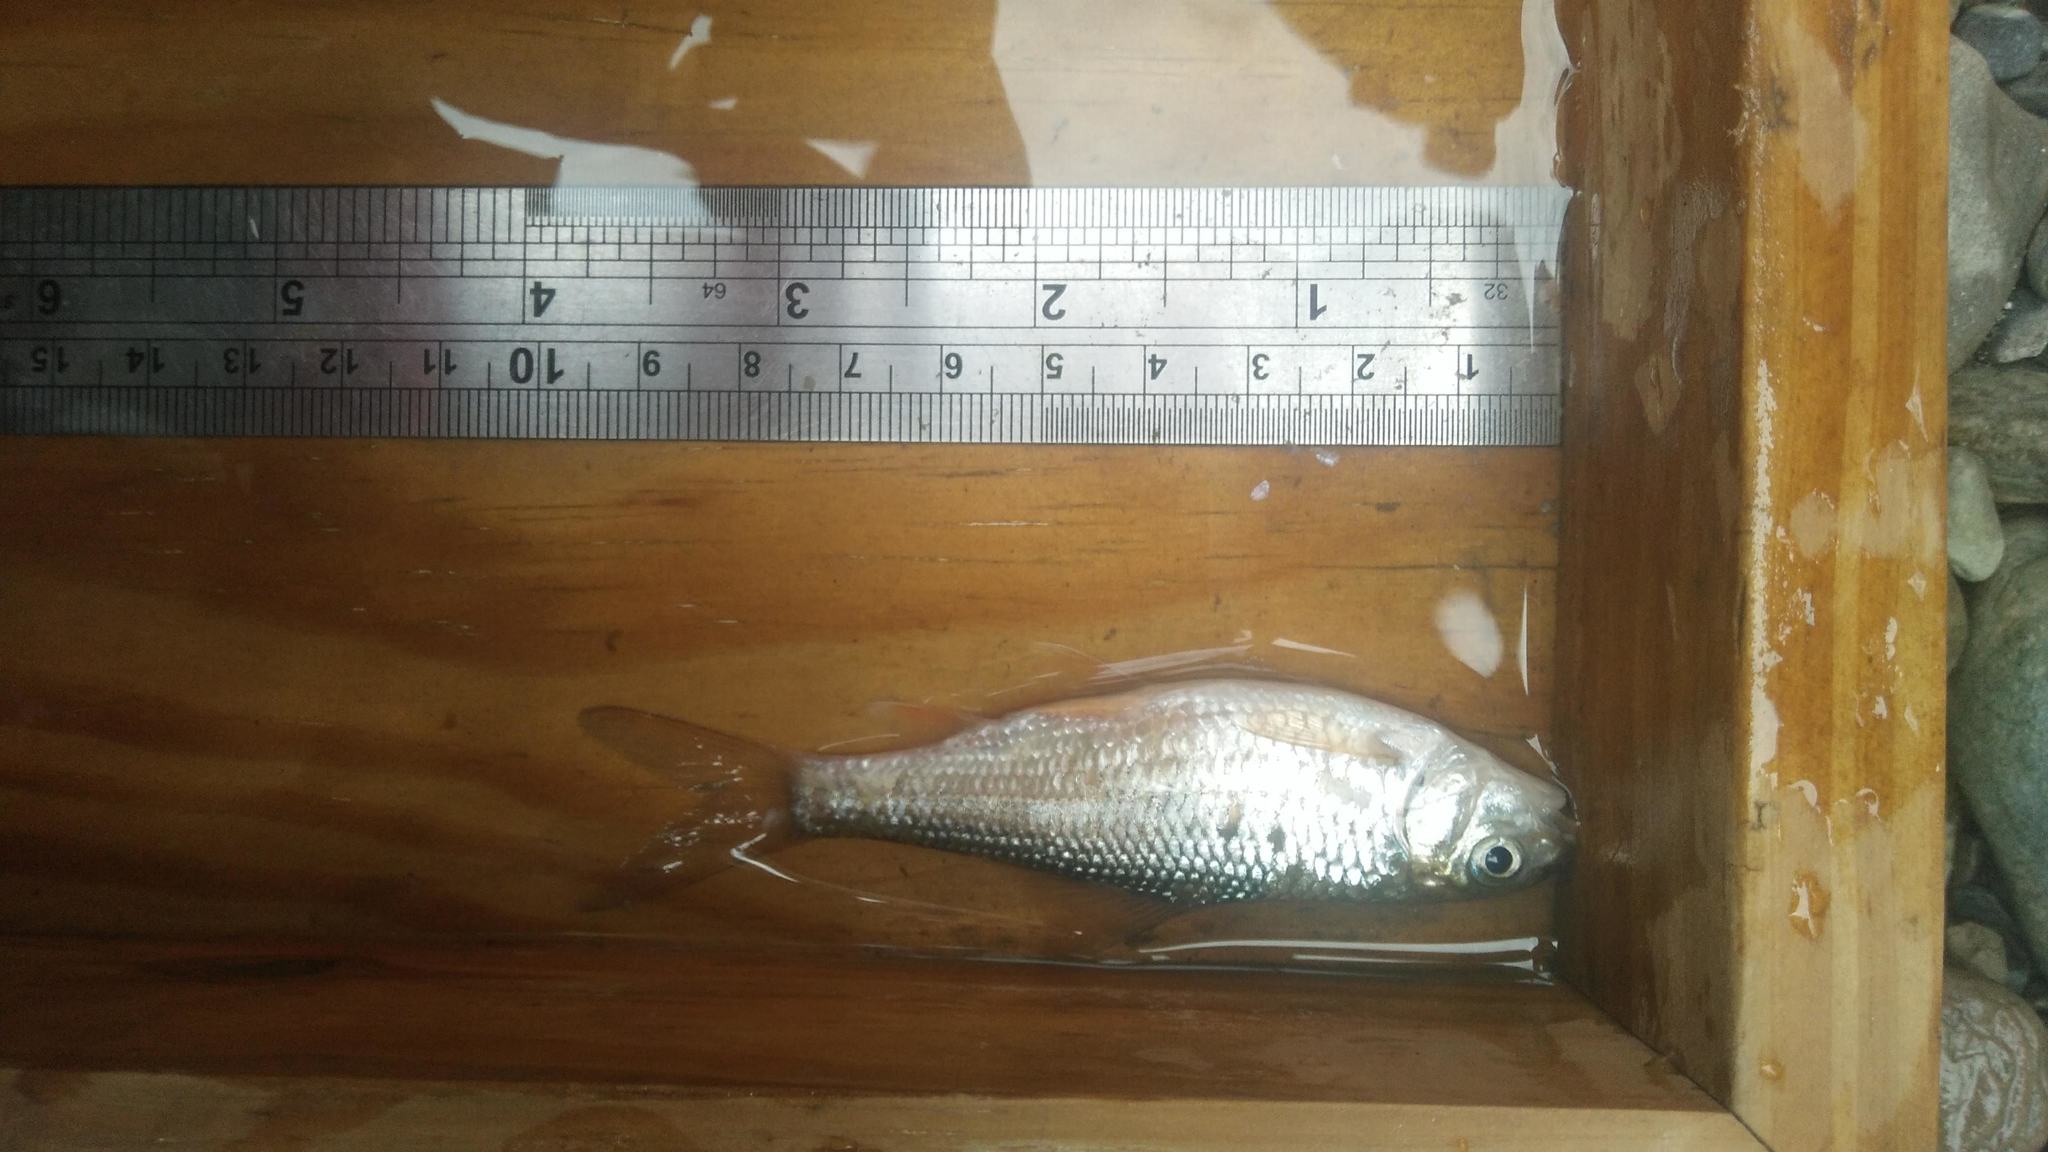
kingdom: Animalia
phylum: Chordata
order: Cypriniformes
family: Cyprinidae
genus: Onychostoma
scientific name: Onychostoma barbatulum
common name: Taiwan shoveljaw carp
